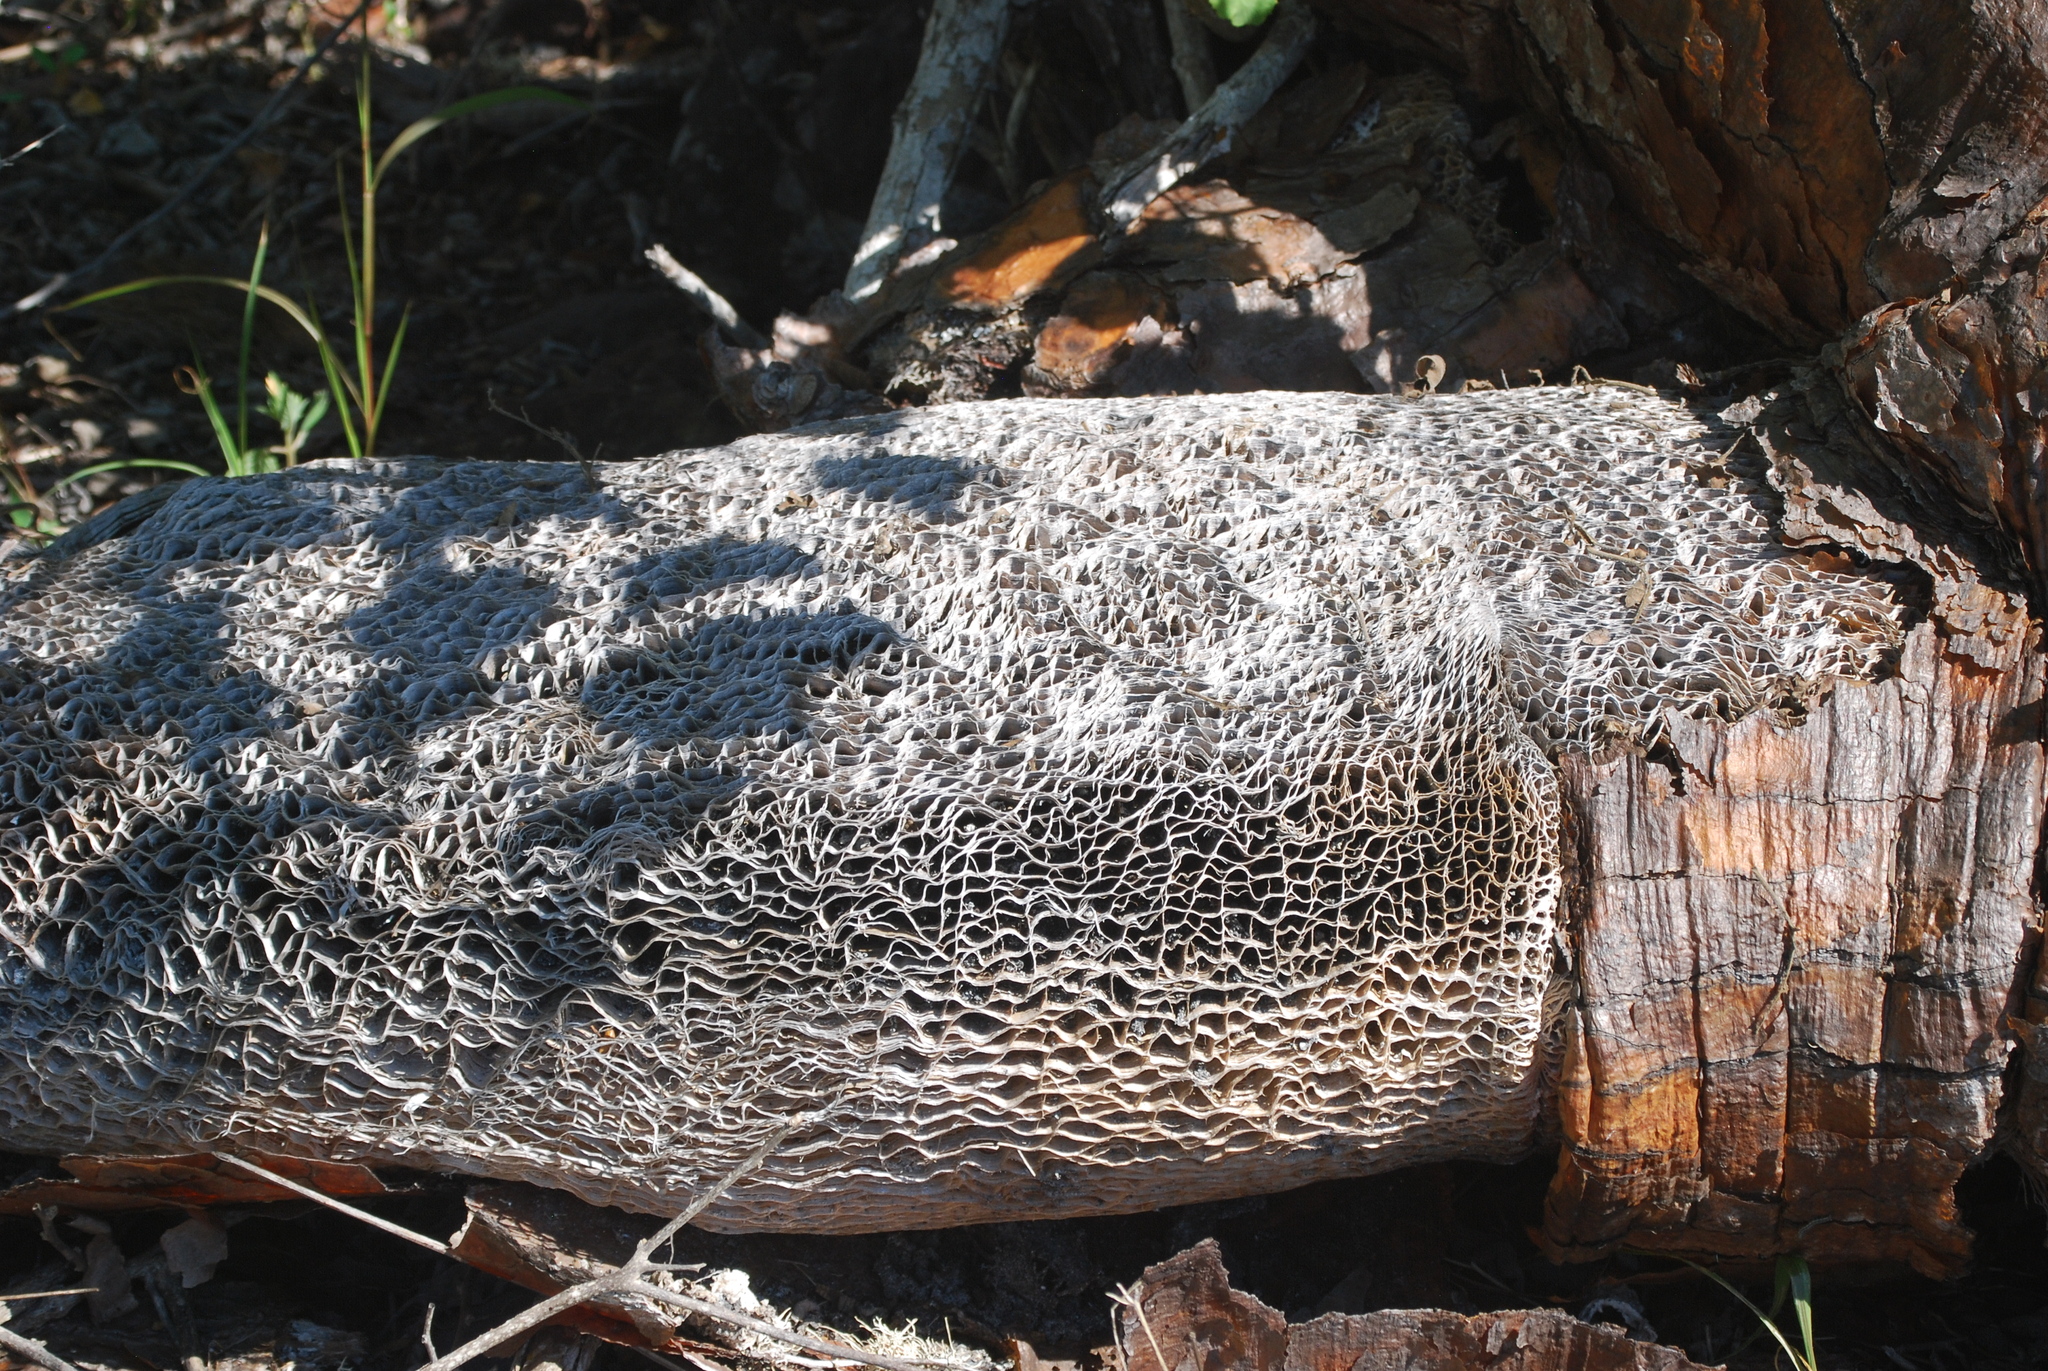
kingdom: Plantae
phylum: Tracheophyta
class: Magnoliopsida
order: Caryophyllales
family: Cactaceae
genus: Opuntia
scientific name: Opuntia galapageia
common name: Galápagos prickly pear
